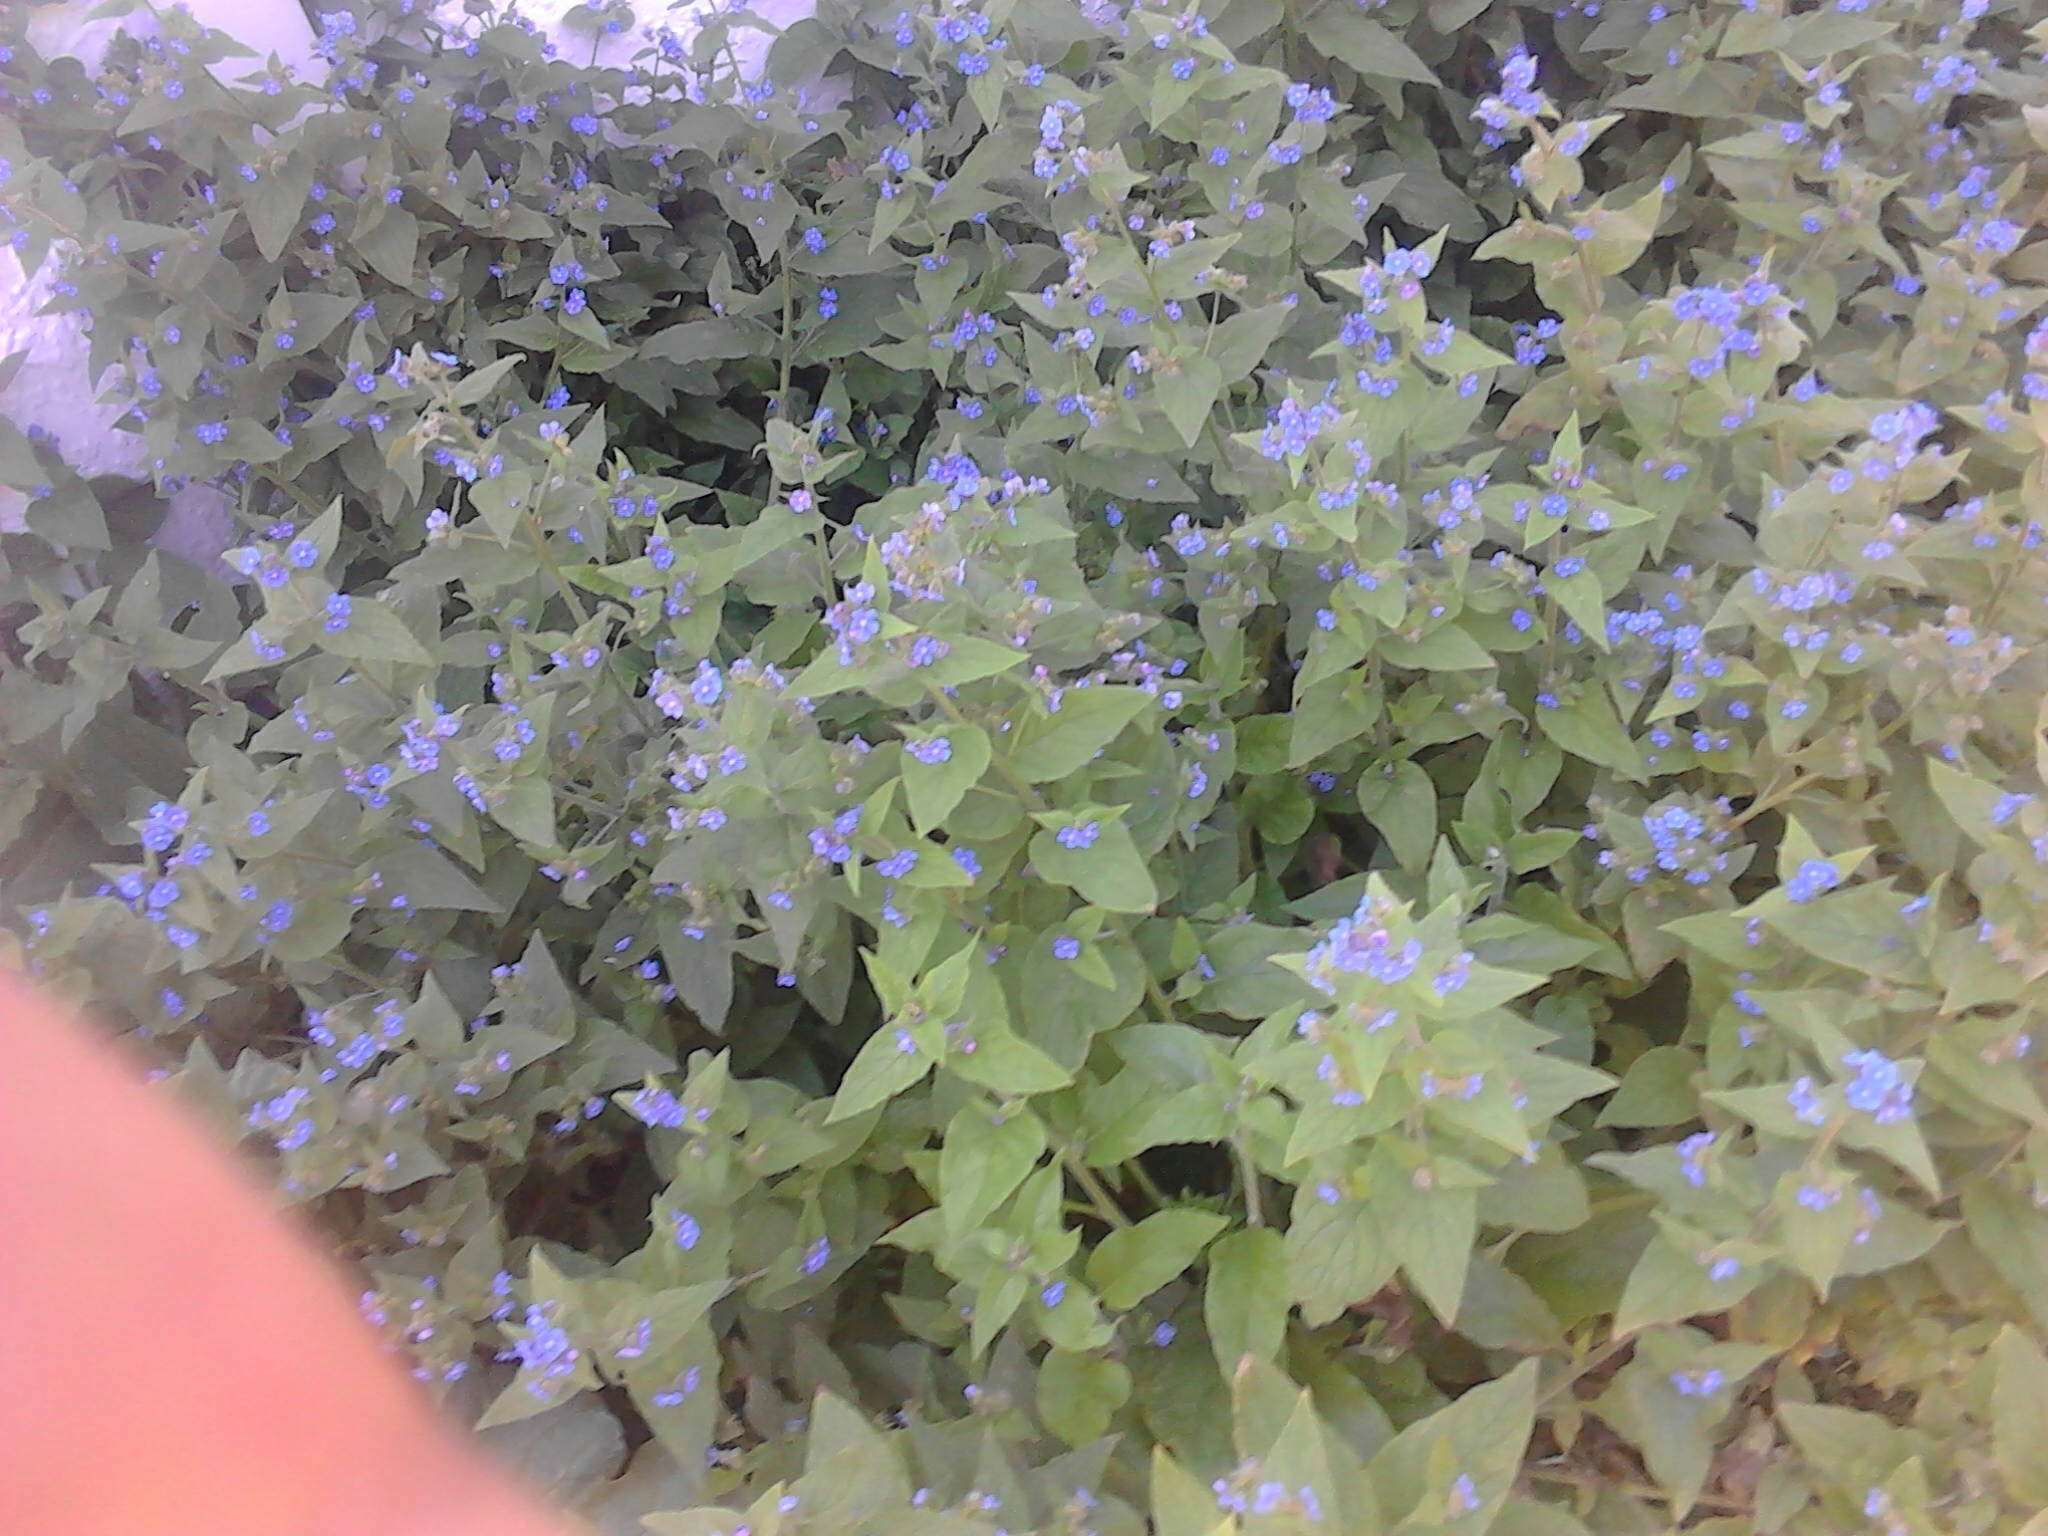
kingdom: Plantae
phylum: Tracheophyta
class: Magnoliopsida
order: Boraginales
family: Boraginaceae
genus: Pentaglottis
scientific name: Pentaglottis sempervirens
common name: Green alkanet
